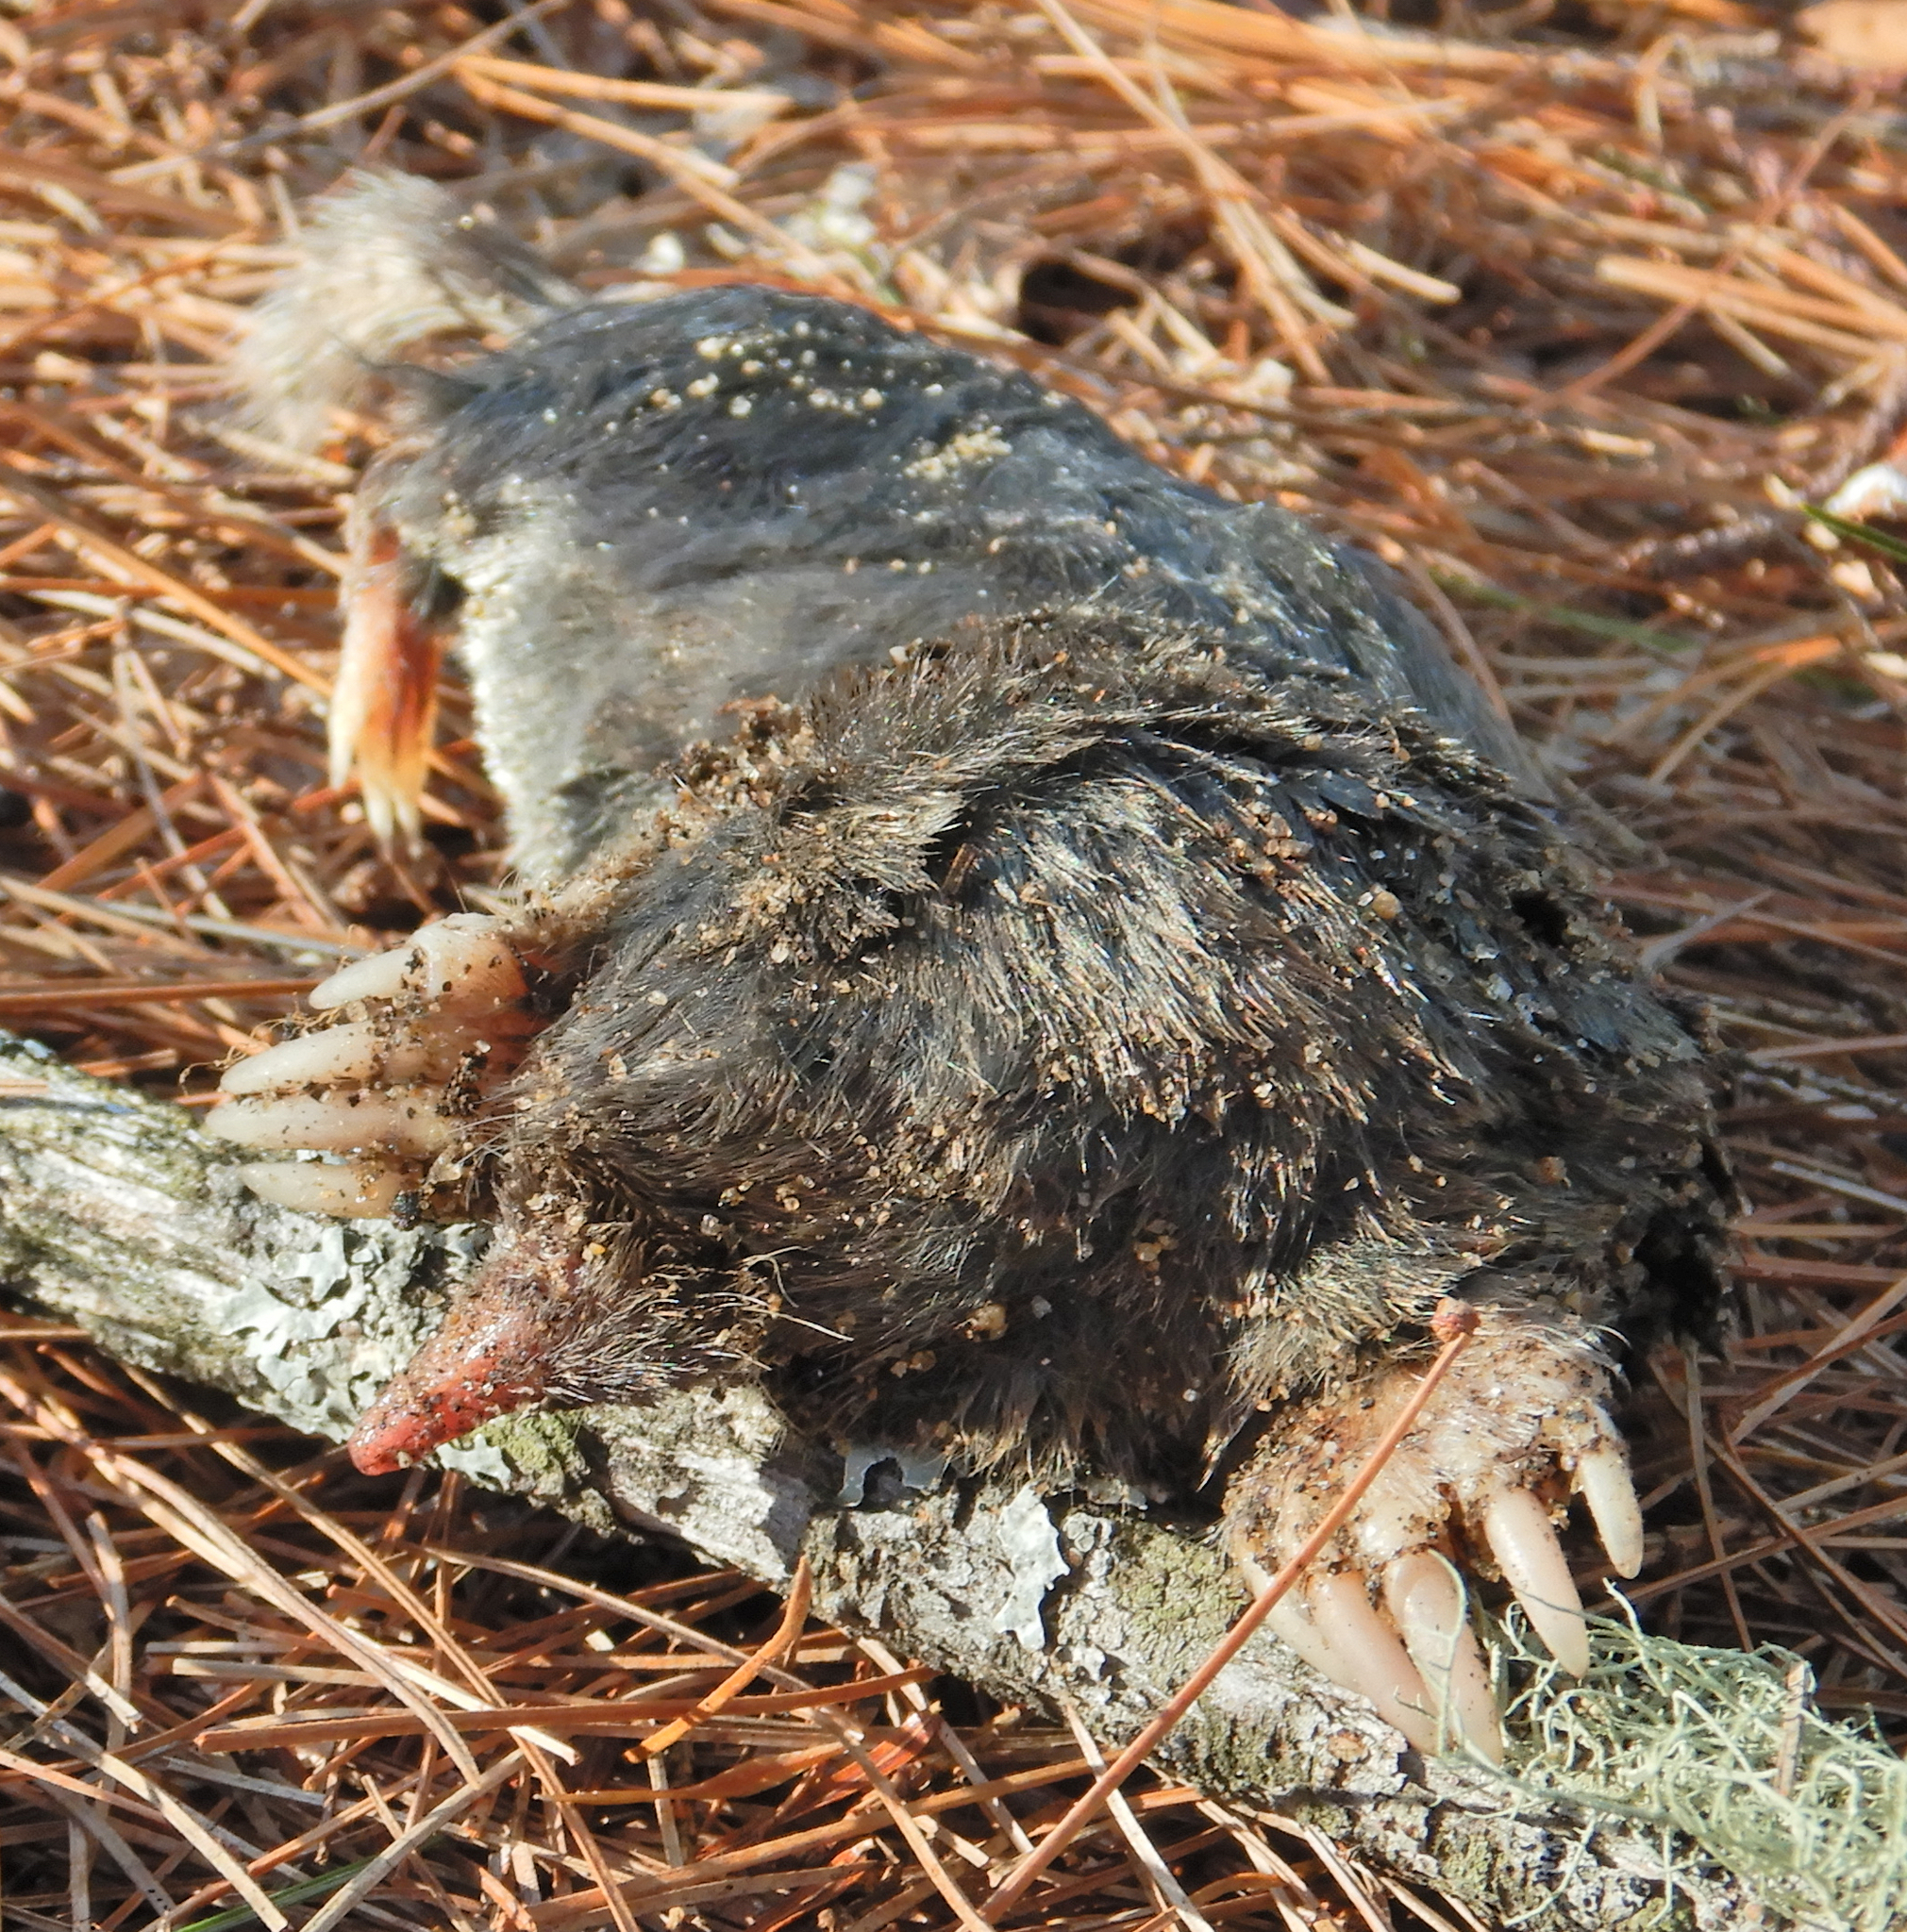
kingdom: Animalia
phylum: Chordata
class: Mammalia
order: Soricomorpha
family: Talpidae
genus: Parascalops
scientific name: Parascalops breweri
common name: Hairy-tailed mole
